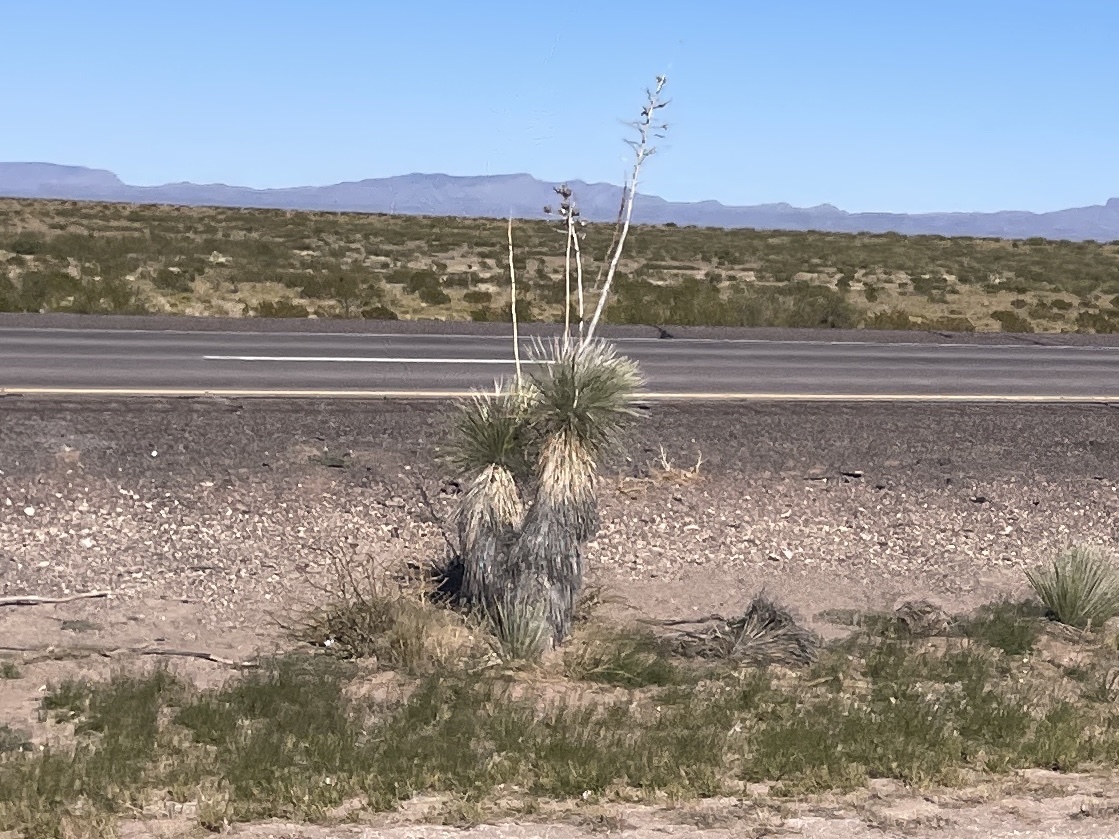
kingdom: Plantae
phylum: Tracheophyta
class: Liliopsida
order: Asparagales
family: Asparagaceae
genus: Yucca
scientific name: Yucca elata
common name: Palmella
